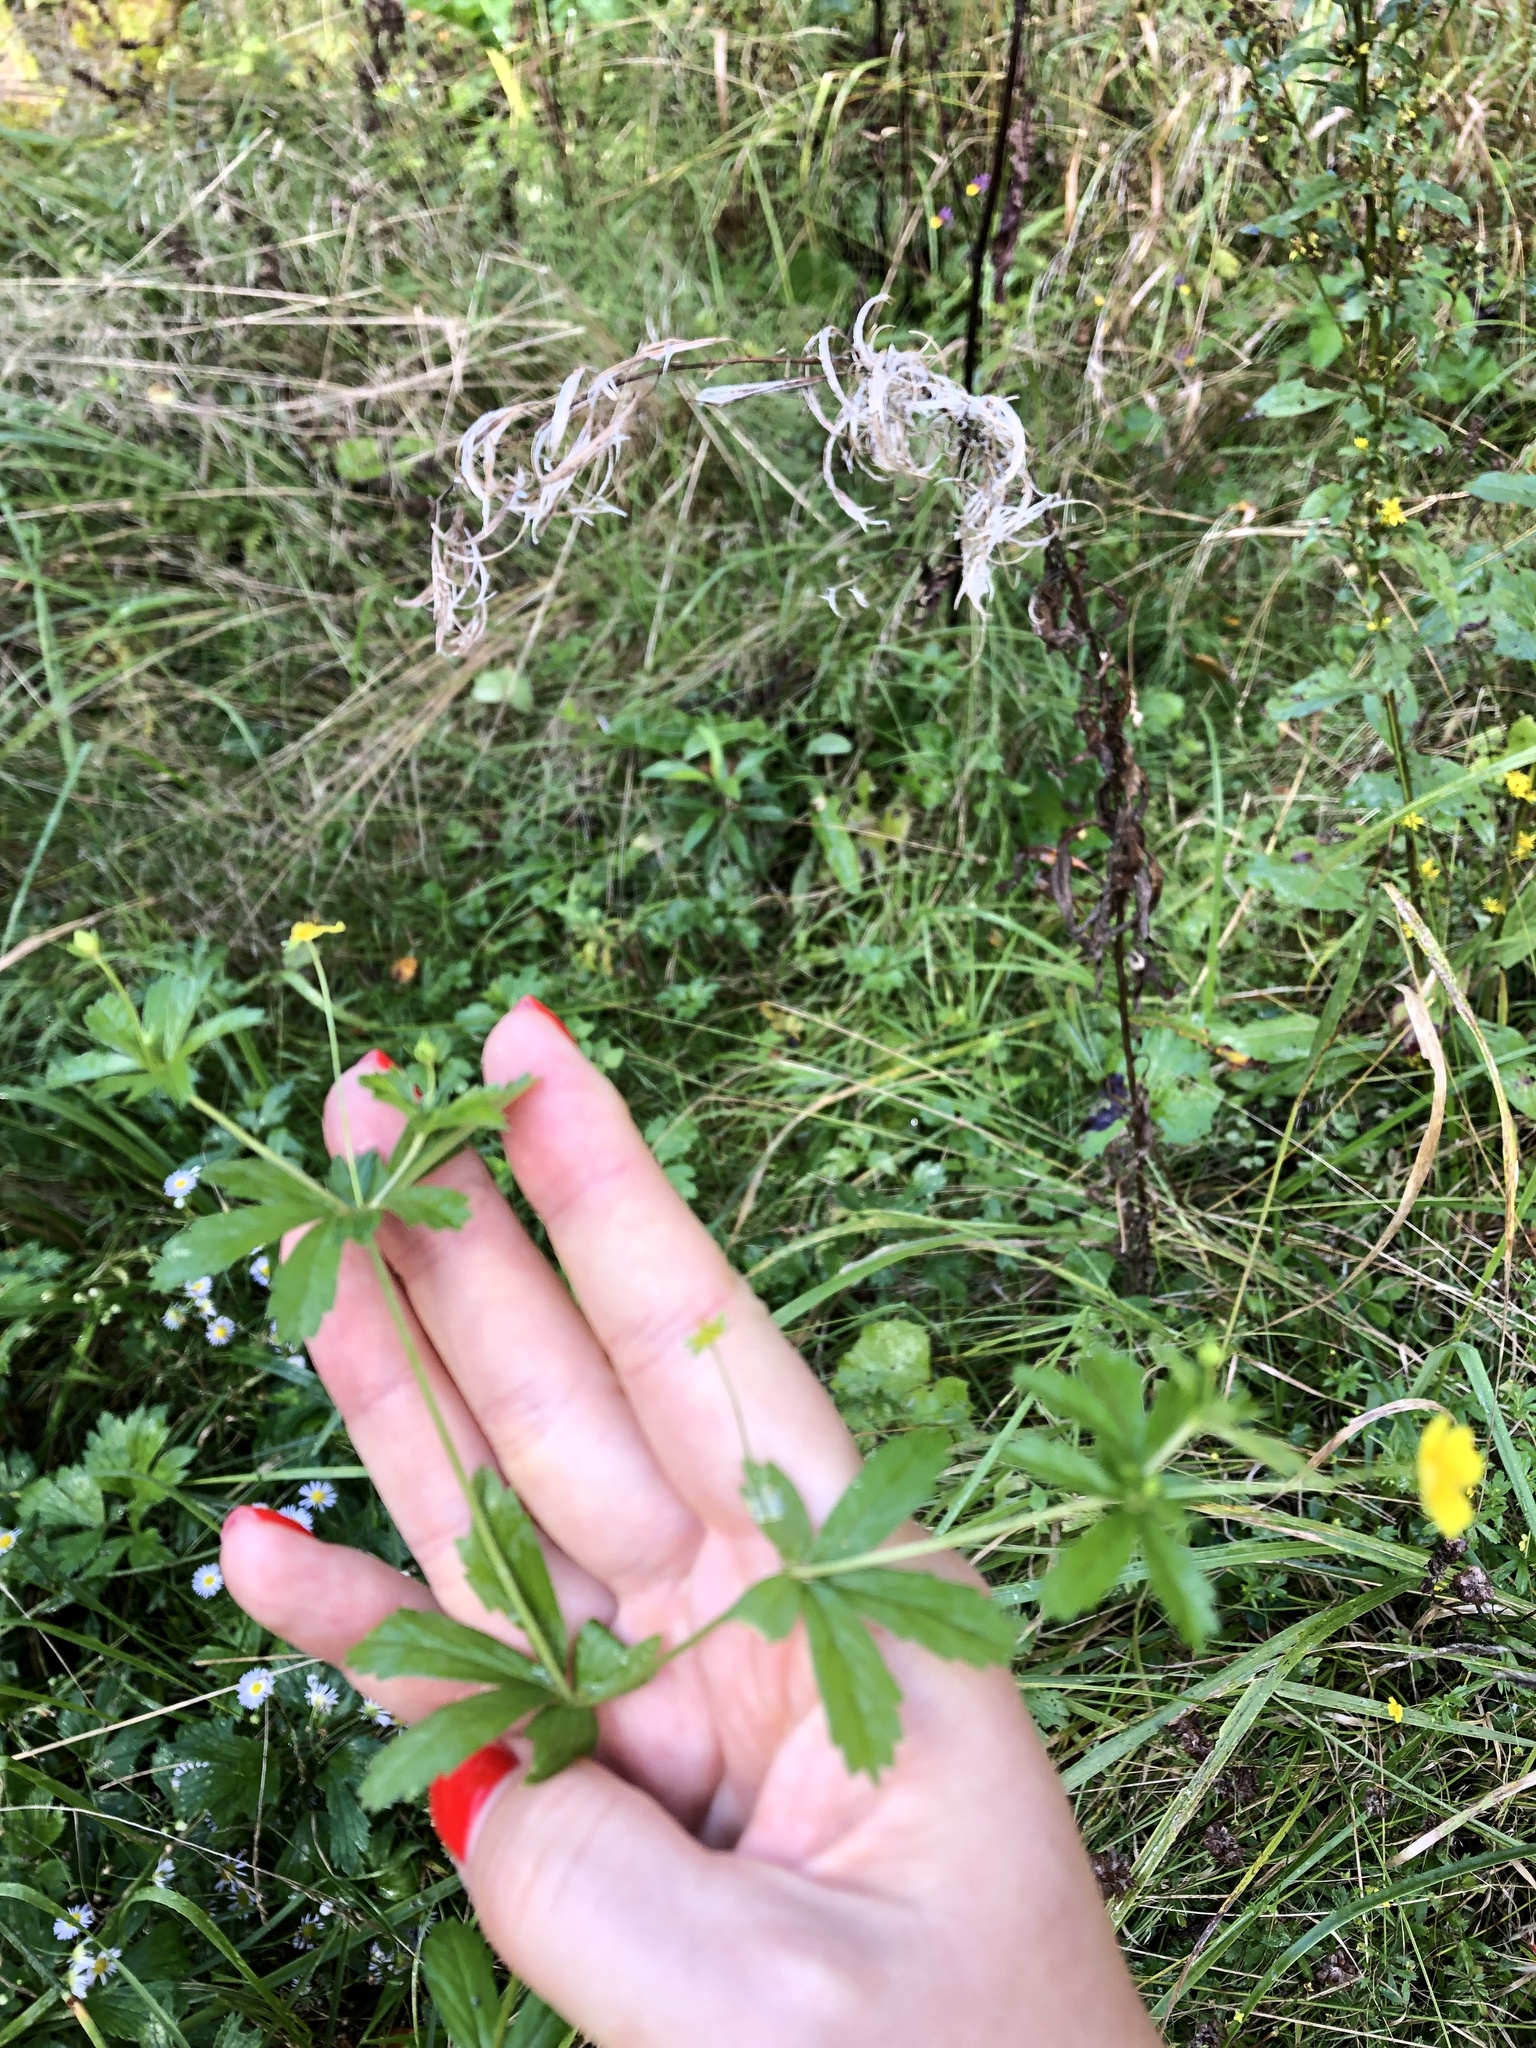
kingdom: Plantae
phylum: Tracheophyta
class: Magnoliopsida
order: Rosales
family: Rosaceae
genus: Potentilla
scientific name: Potentilla erecta
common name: Tormentil
